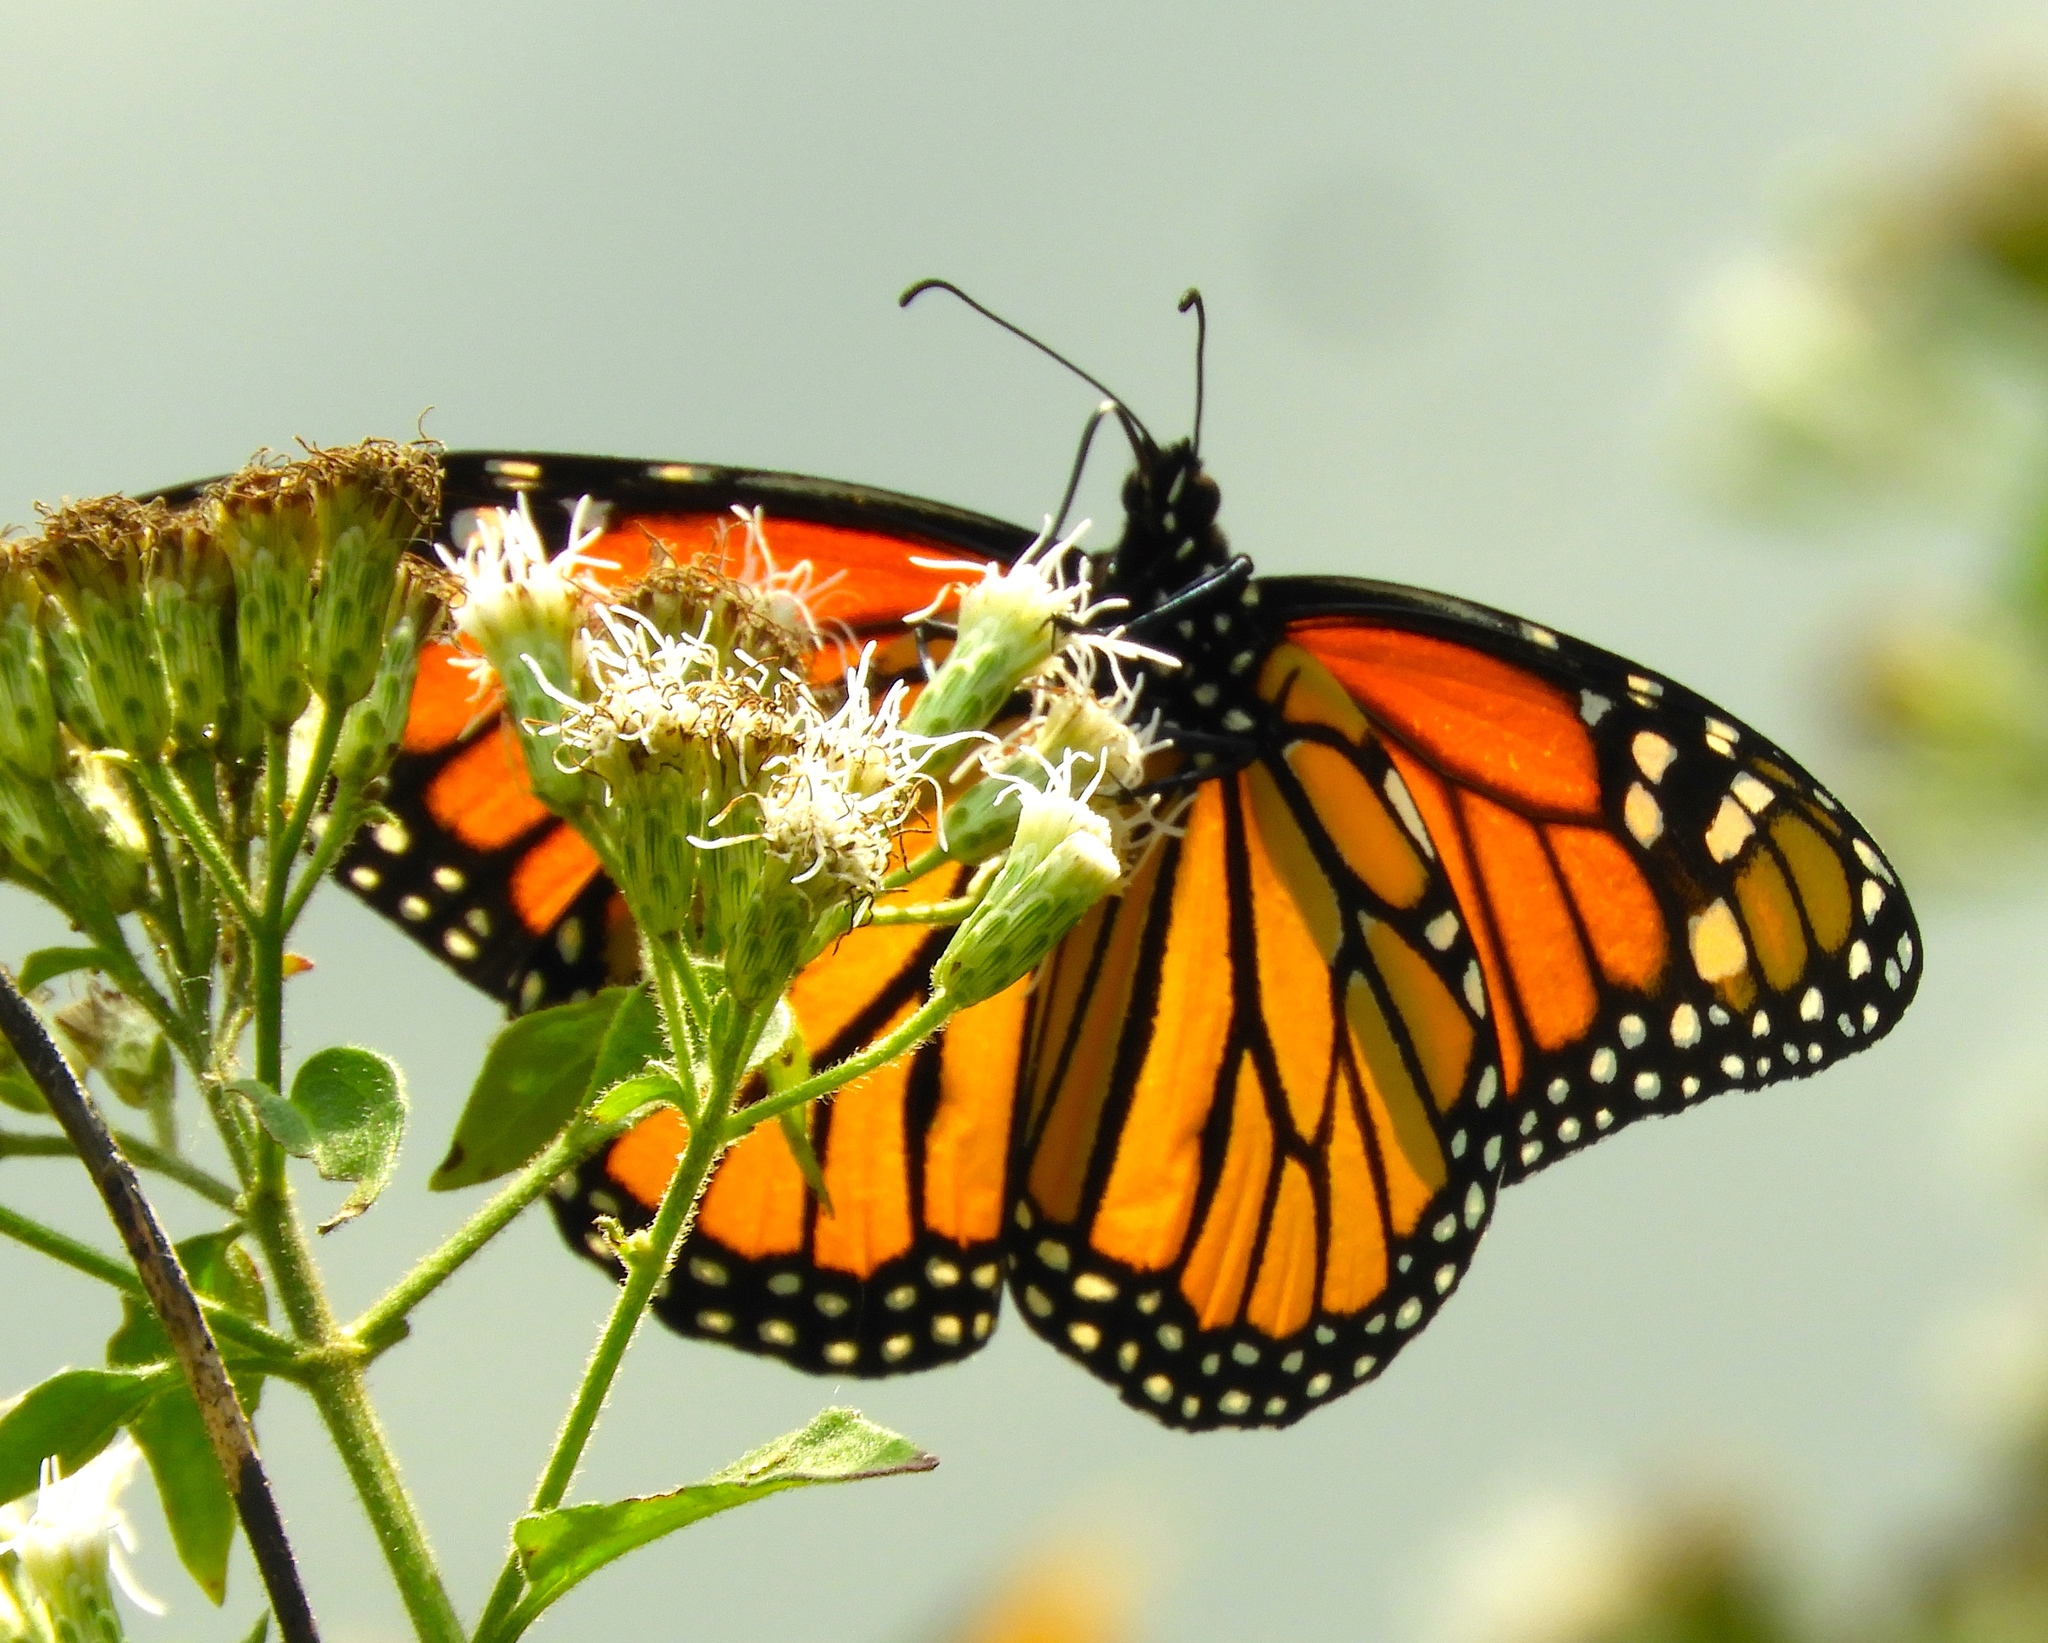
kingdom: Animalia
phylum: Arthropoda
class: Insecta
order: Lepidoptera
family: Nymphalidae
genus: Danaus
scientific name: Danaus plexippus
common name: Monarch
